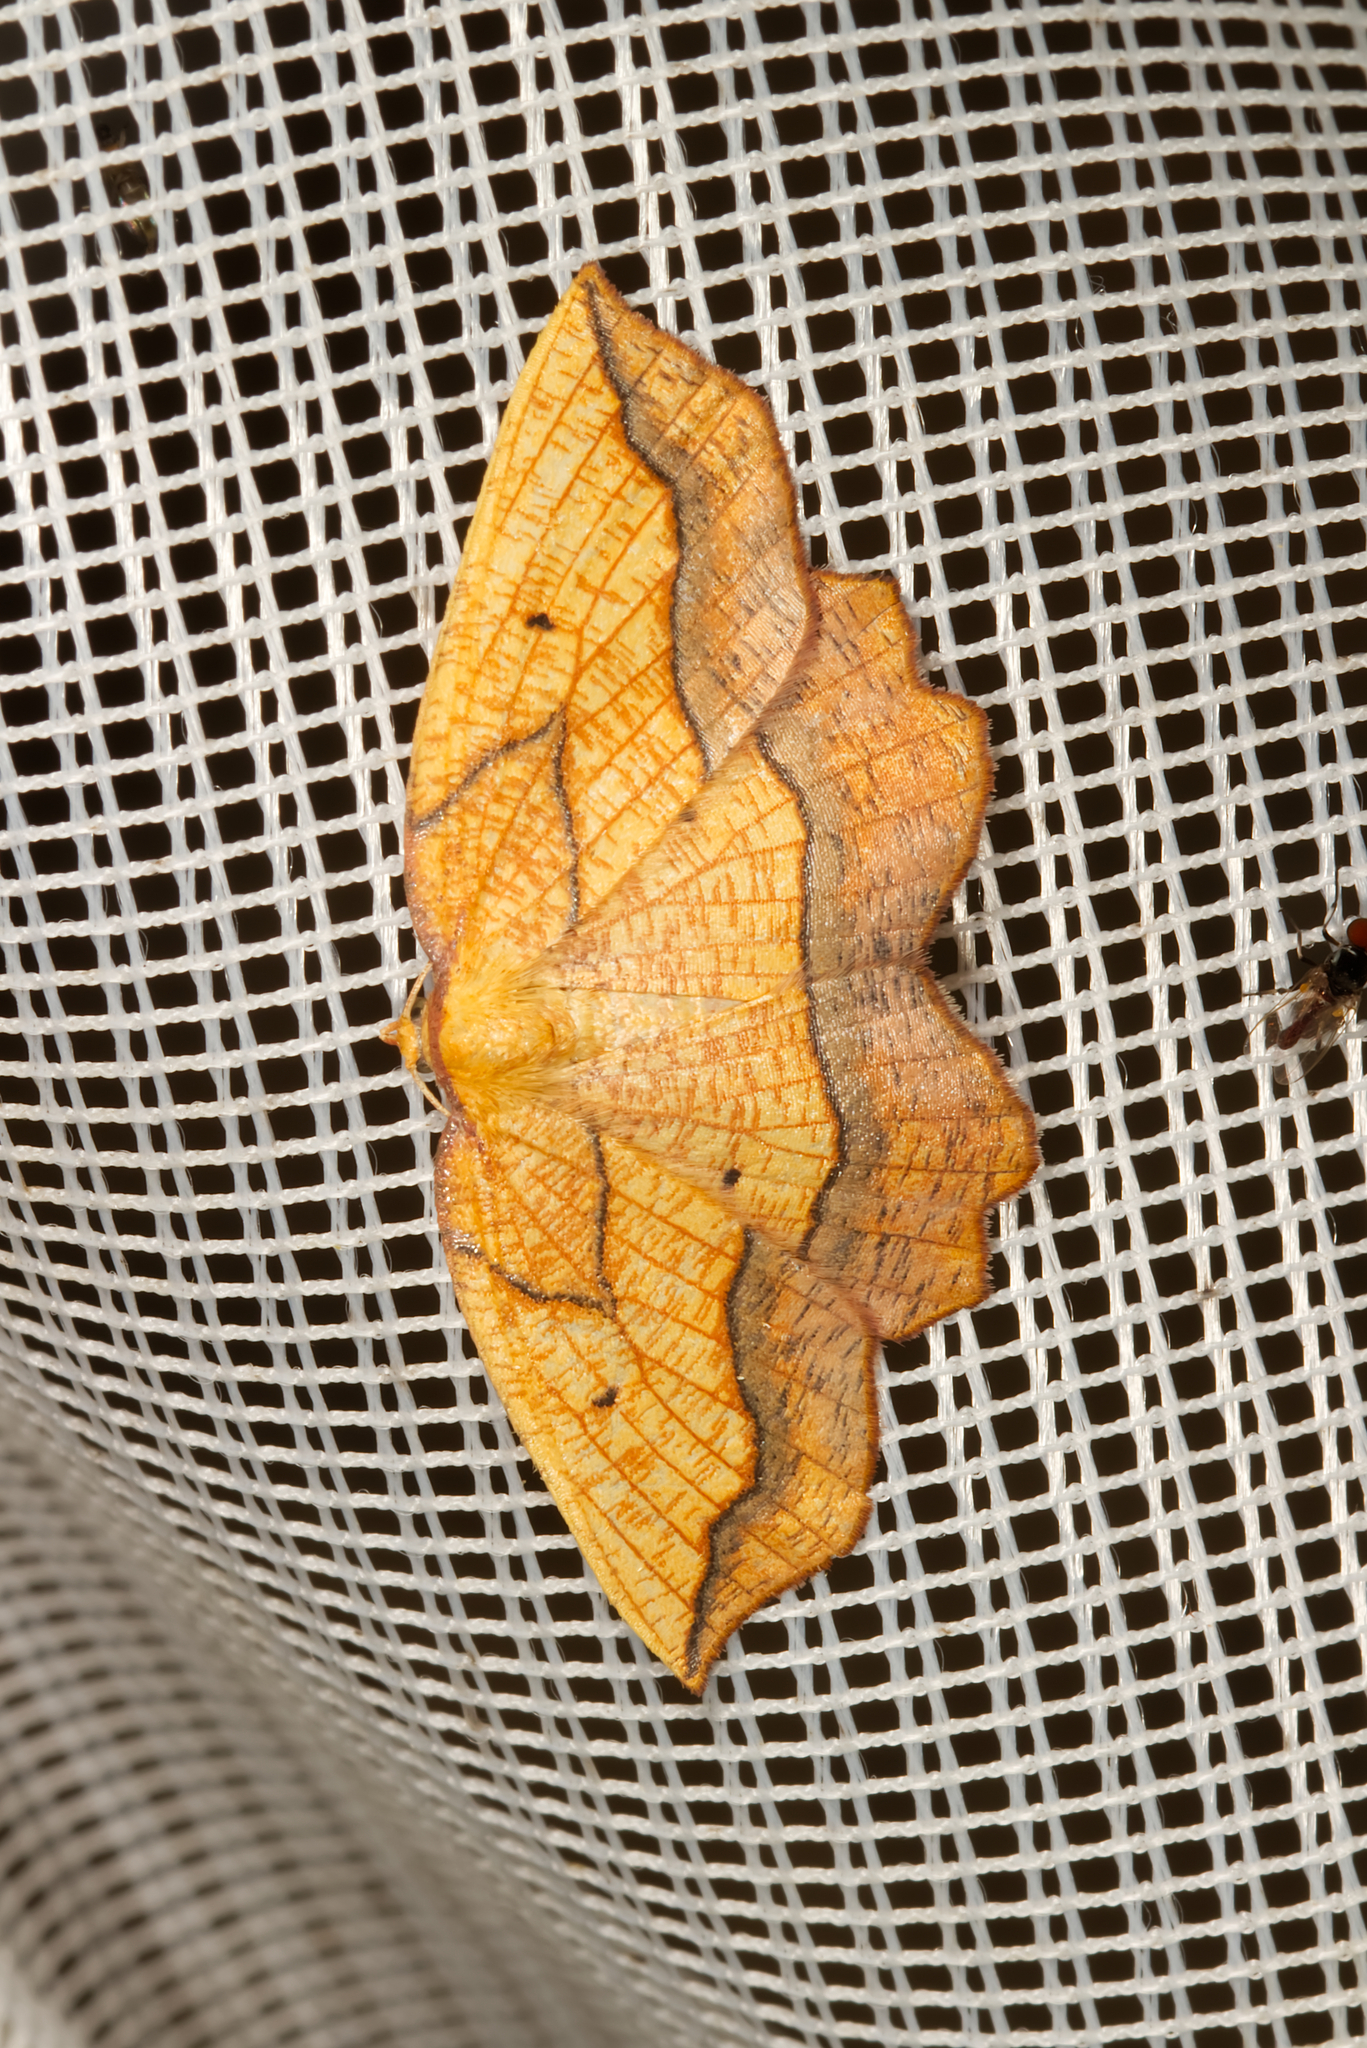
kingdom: Animalia
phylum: Arthropoda
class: Insecta
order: Lepidoptera
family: Geometridae
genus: Epione
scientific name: Epione repandaria
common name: Bordered beauty
